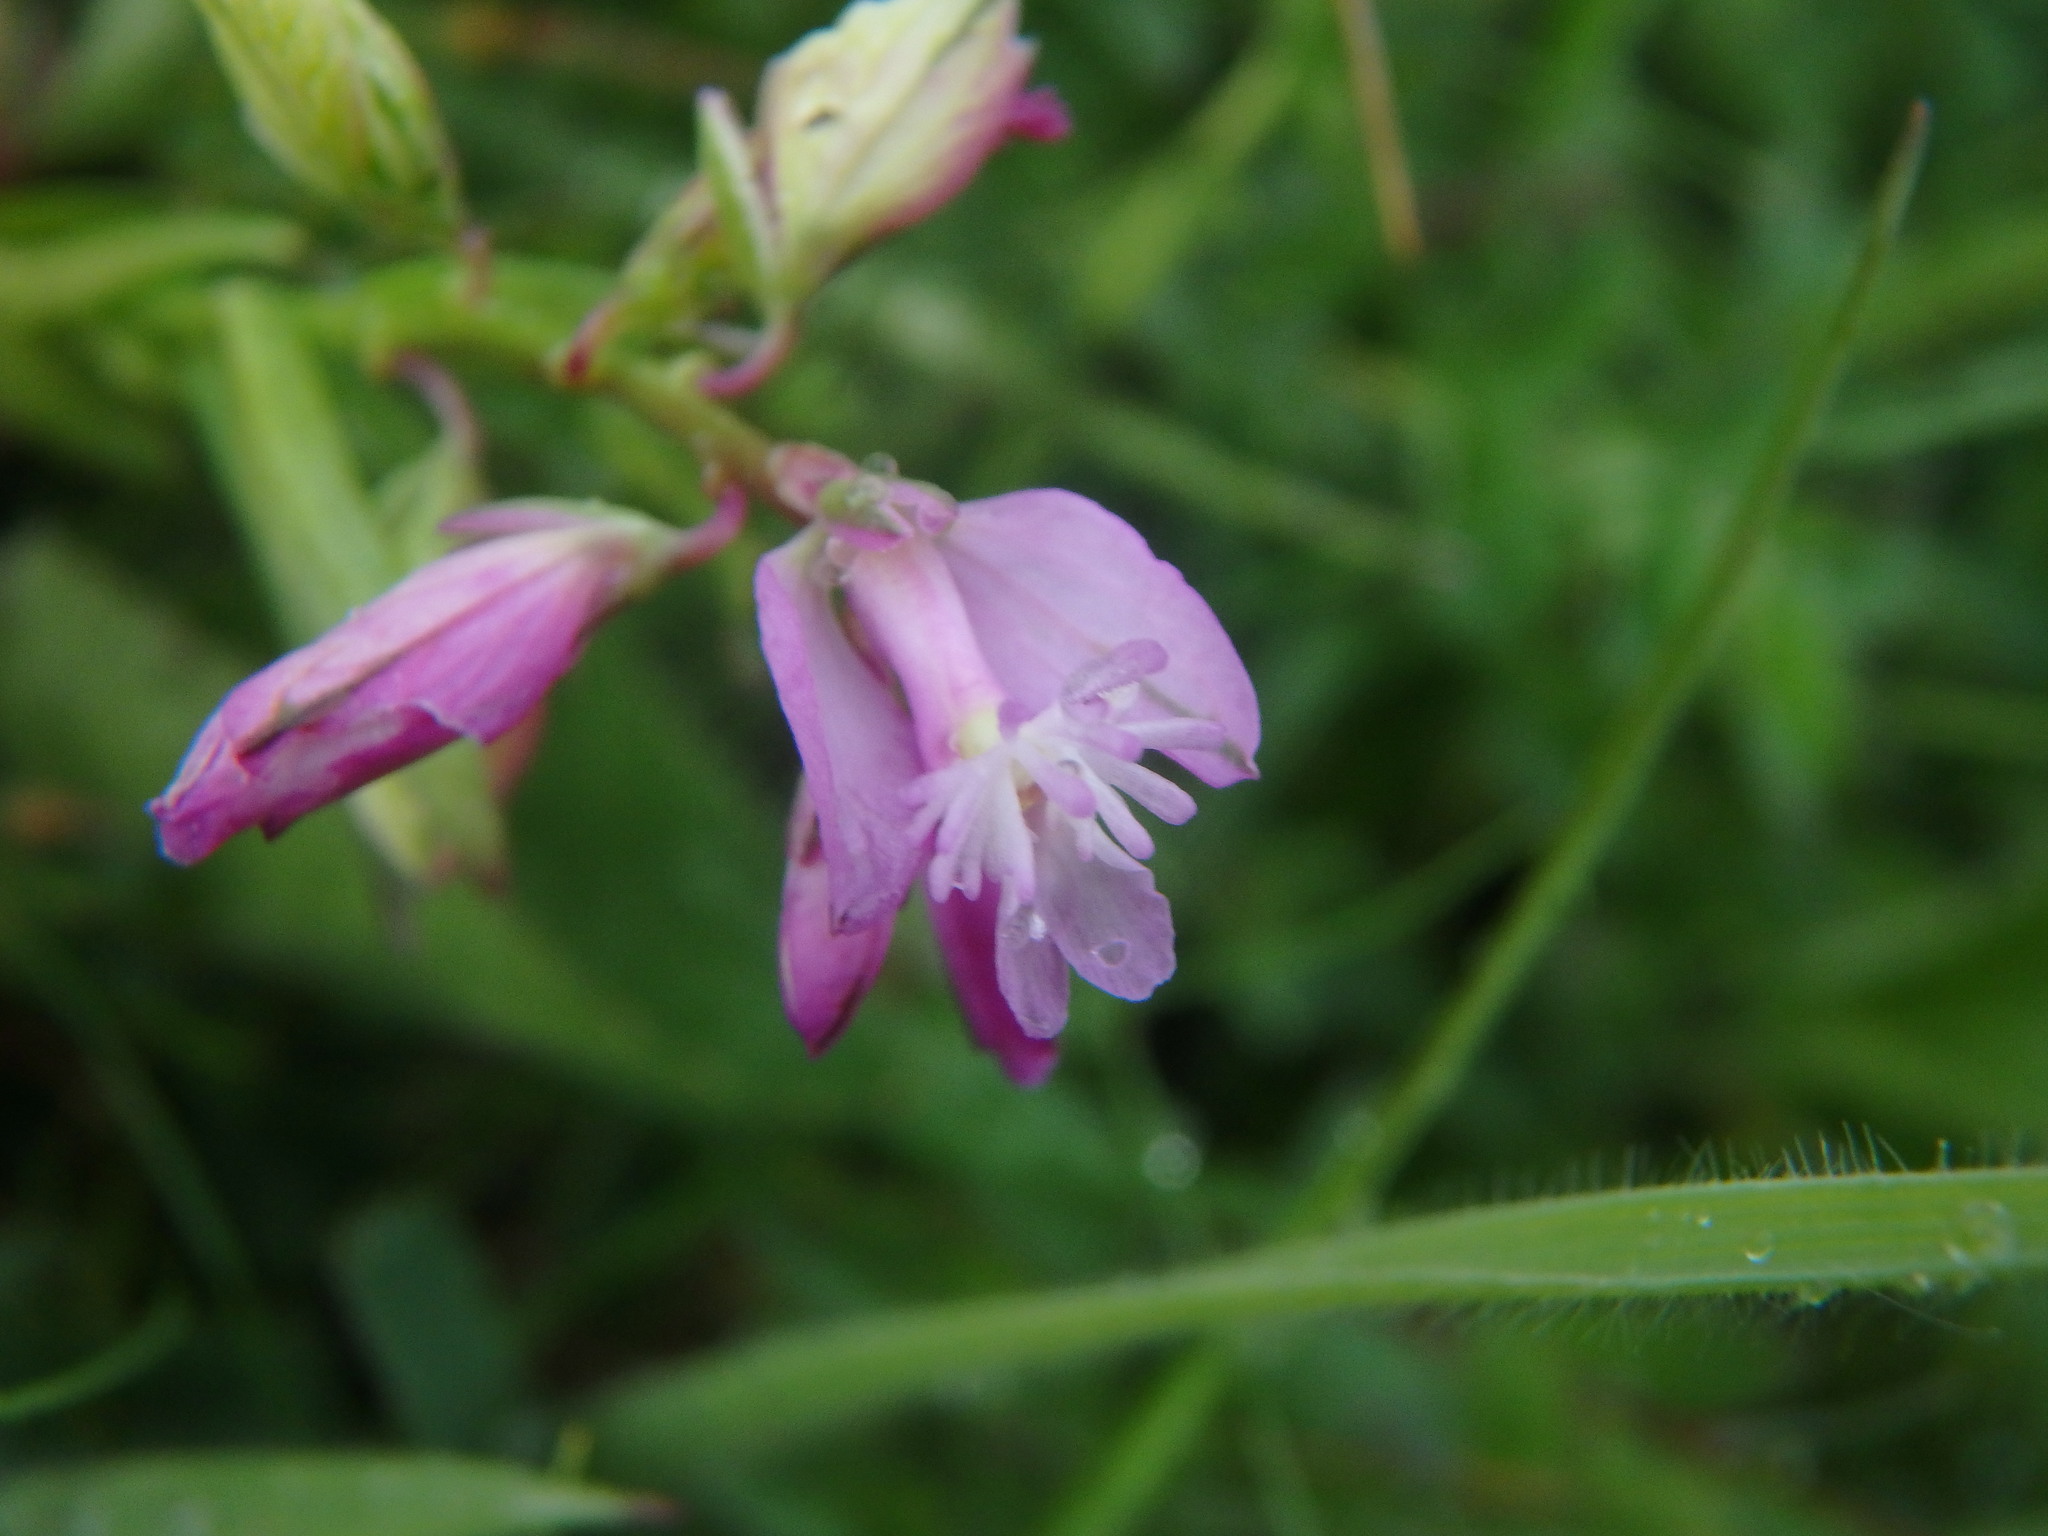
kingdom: Plantae
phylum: Tracheophyta
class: Magnoliopsida
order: Fabales
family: Polygalaceae
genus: Polygala
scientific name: Polygala vulgaris
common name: Common milkwort
